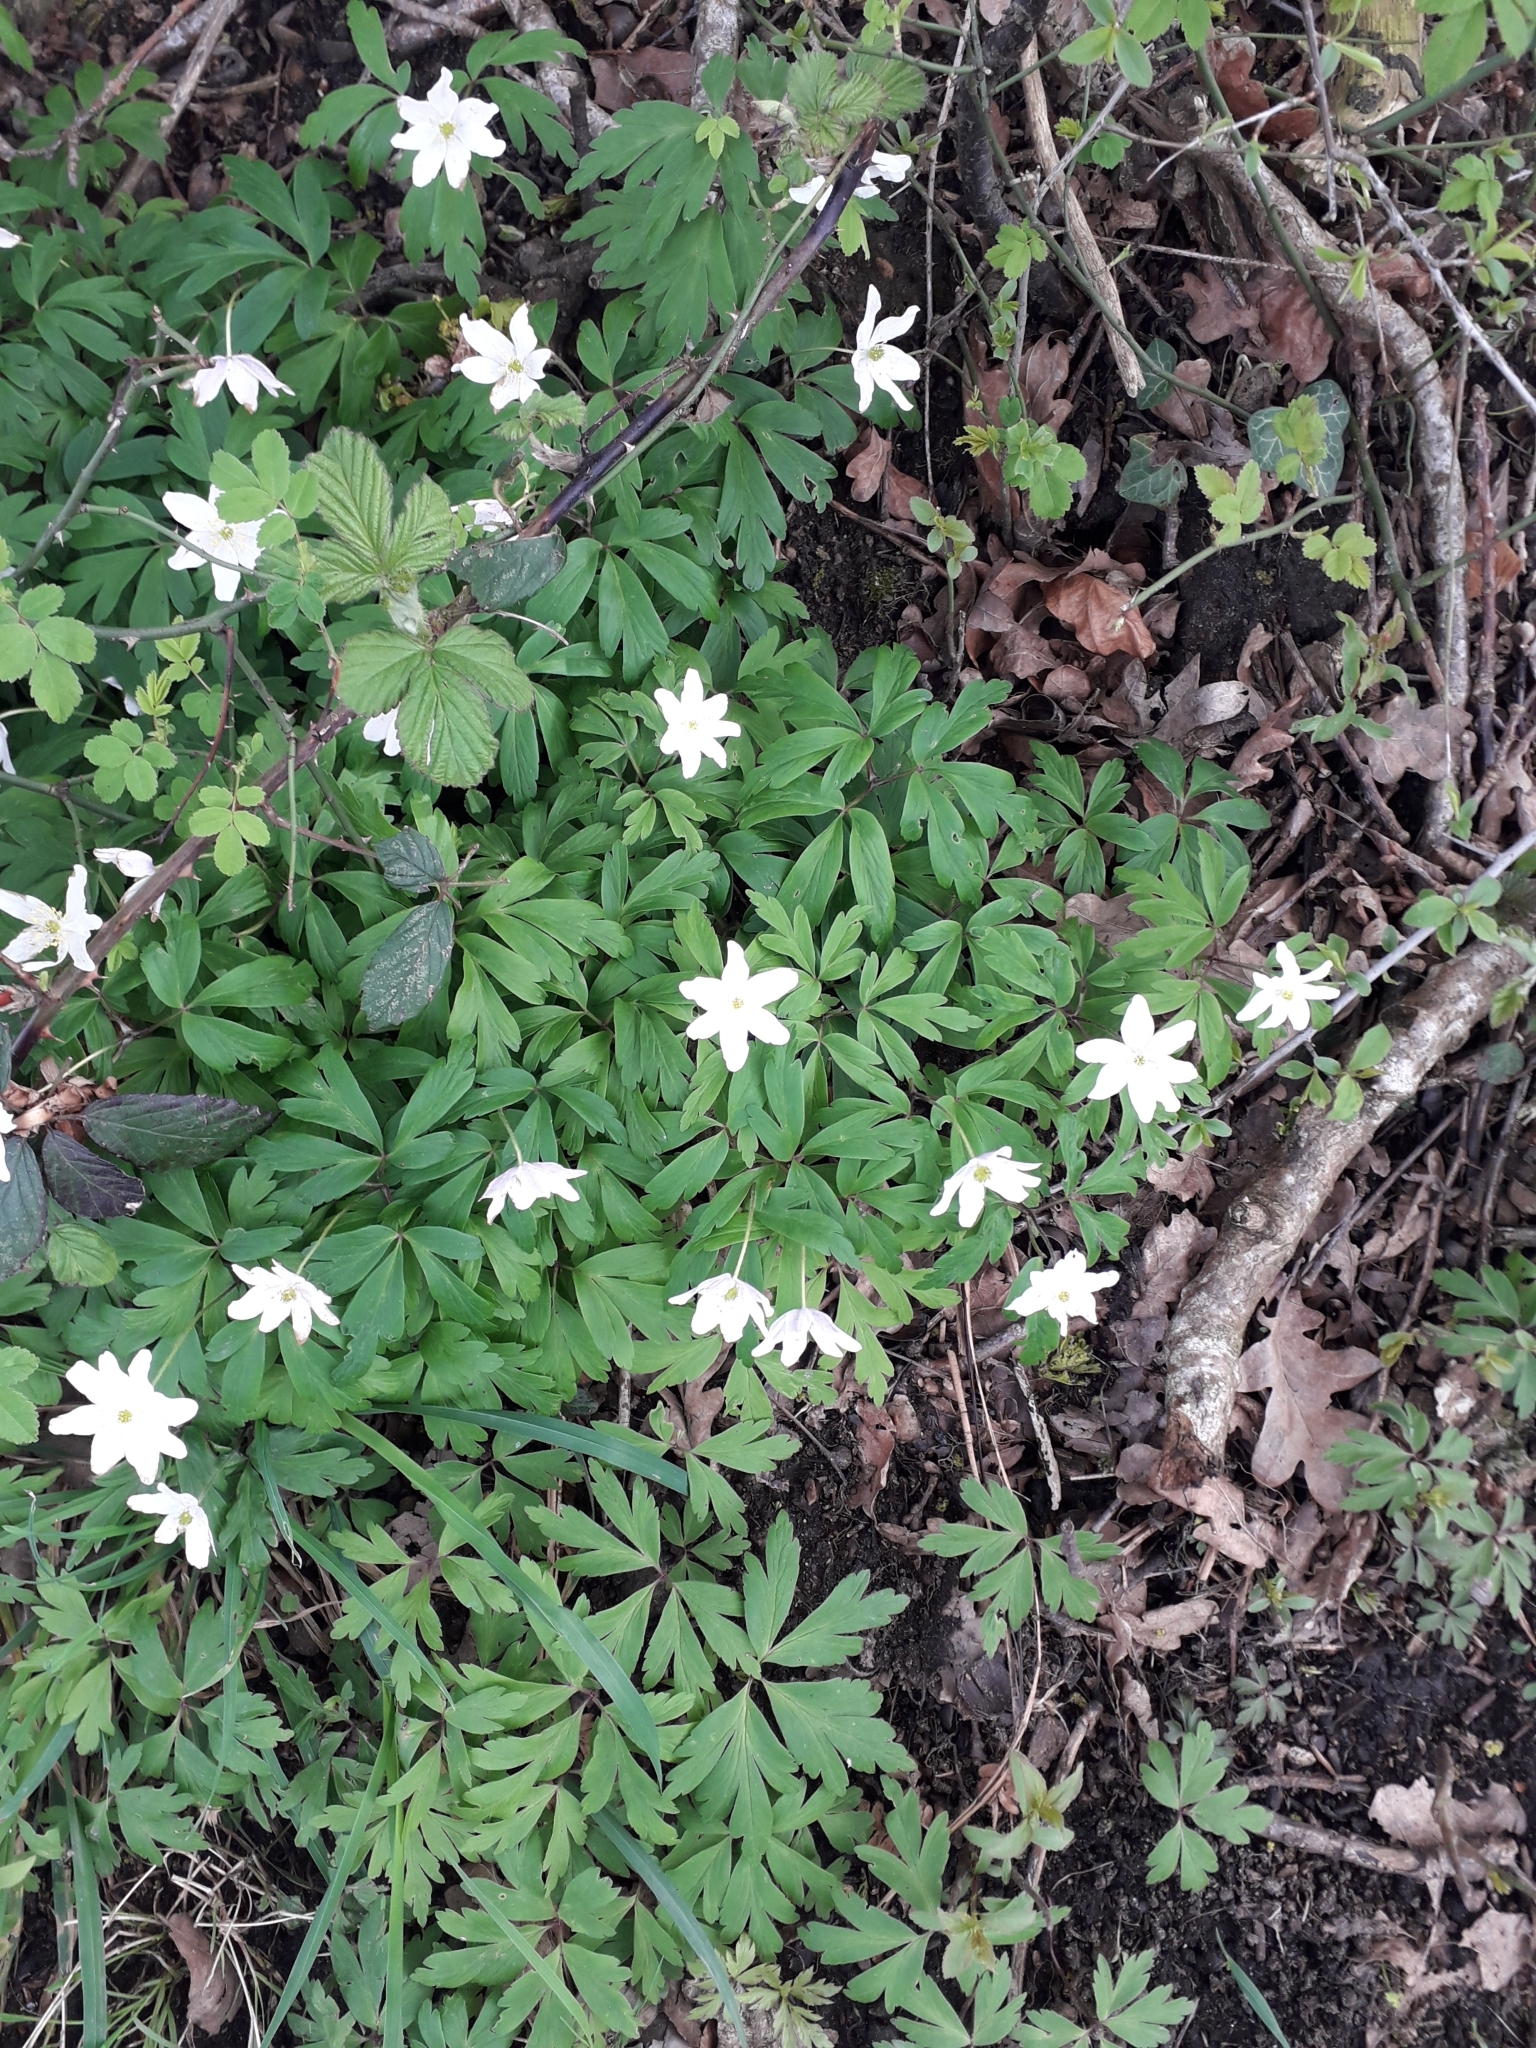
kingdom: Plantae
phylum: Tracheophyta
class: Magnoliopsida
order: Ranunculales
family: Ranunculaceae
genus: Anemone
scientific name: Anemone nemorosa
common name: Wood anemone
